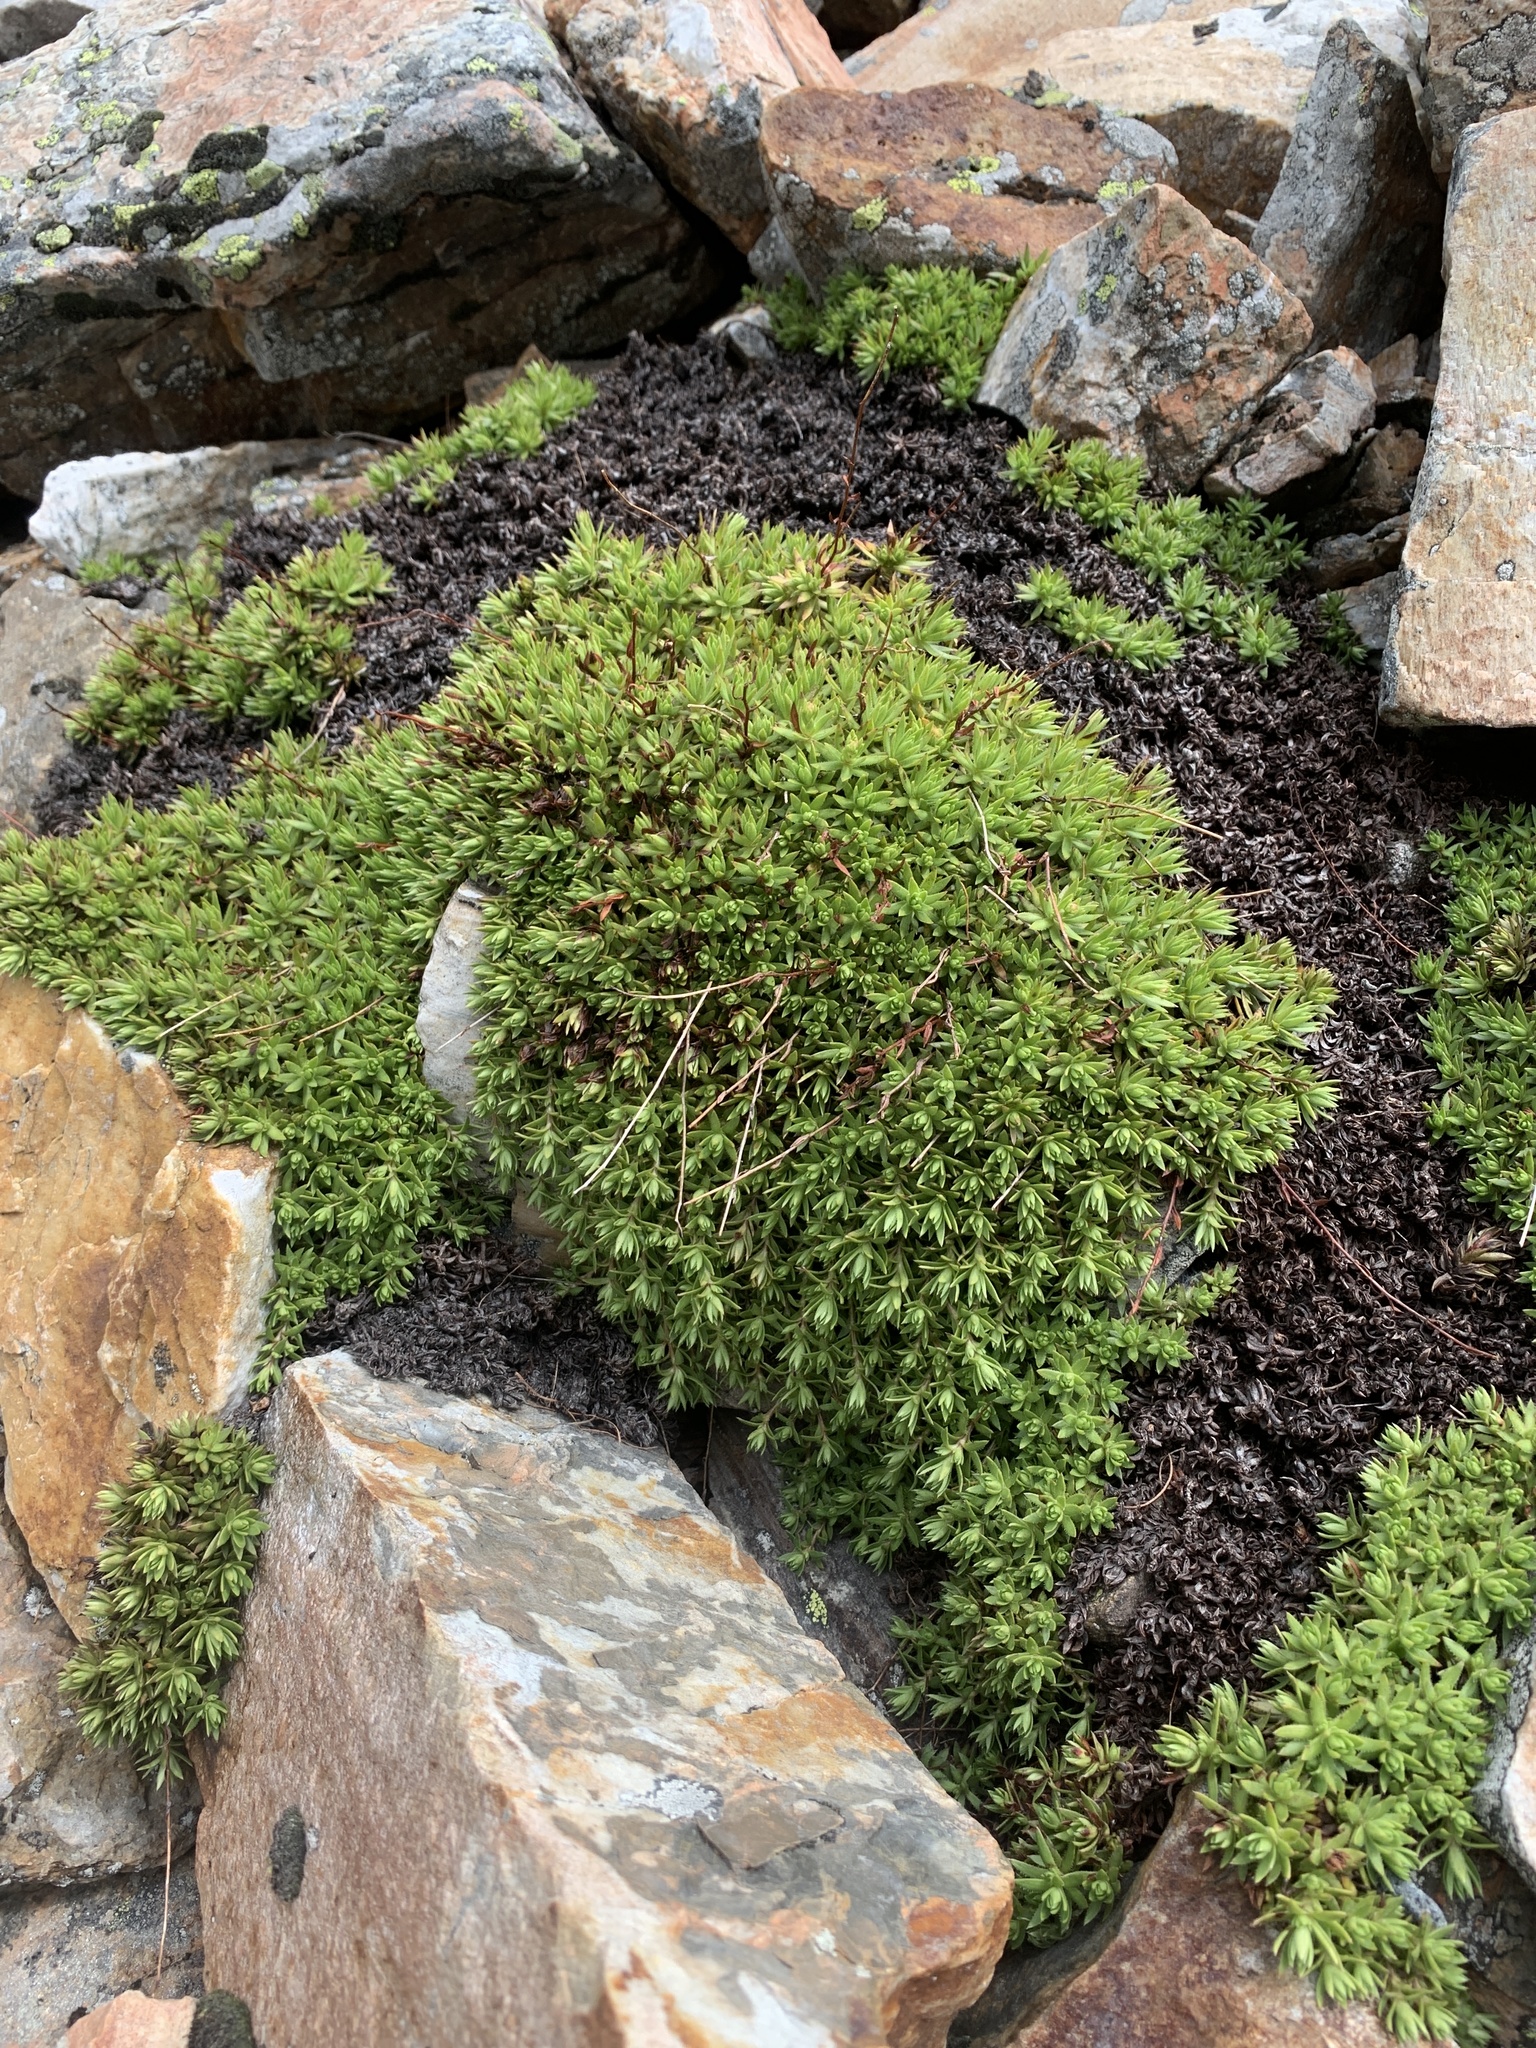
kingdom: Plantae
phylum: Tracheophyta
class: Magnoliopsida
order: Saxifragales
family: Saxifragaceae
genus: Saxifraga
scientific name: Saxifraga bronchialis
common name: Matted saxifrage
